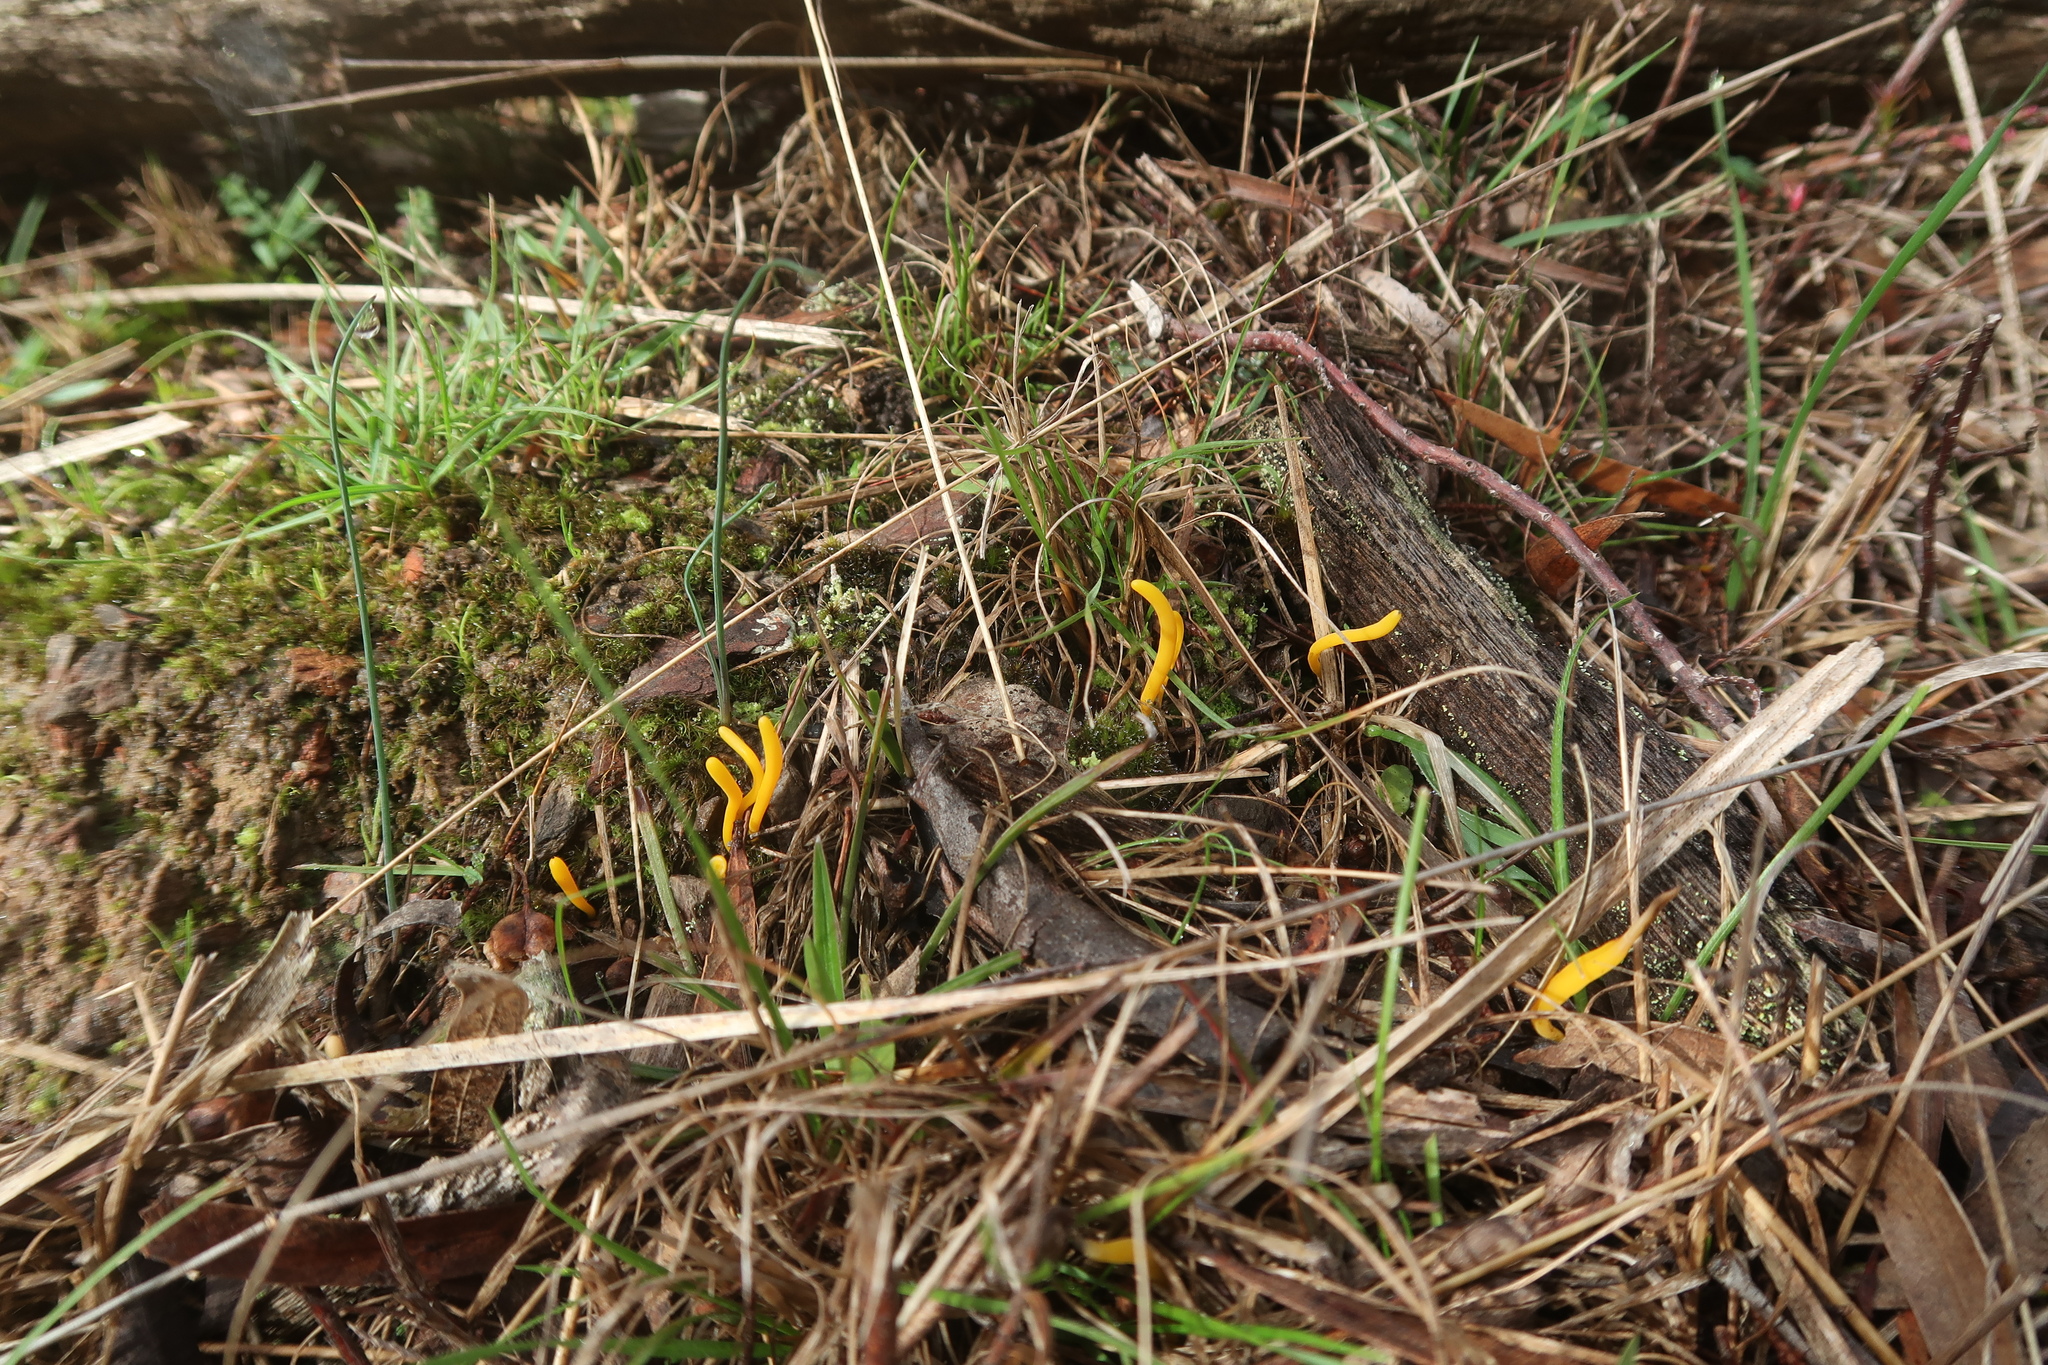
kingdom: Fungi
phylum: Basidiomycota
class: Agaricomycetes
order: Agaricales
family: Clavariaceae
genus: Clavulinopsis
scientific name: Clavulinopsis amoena
